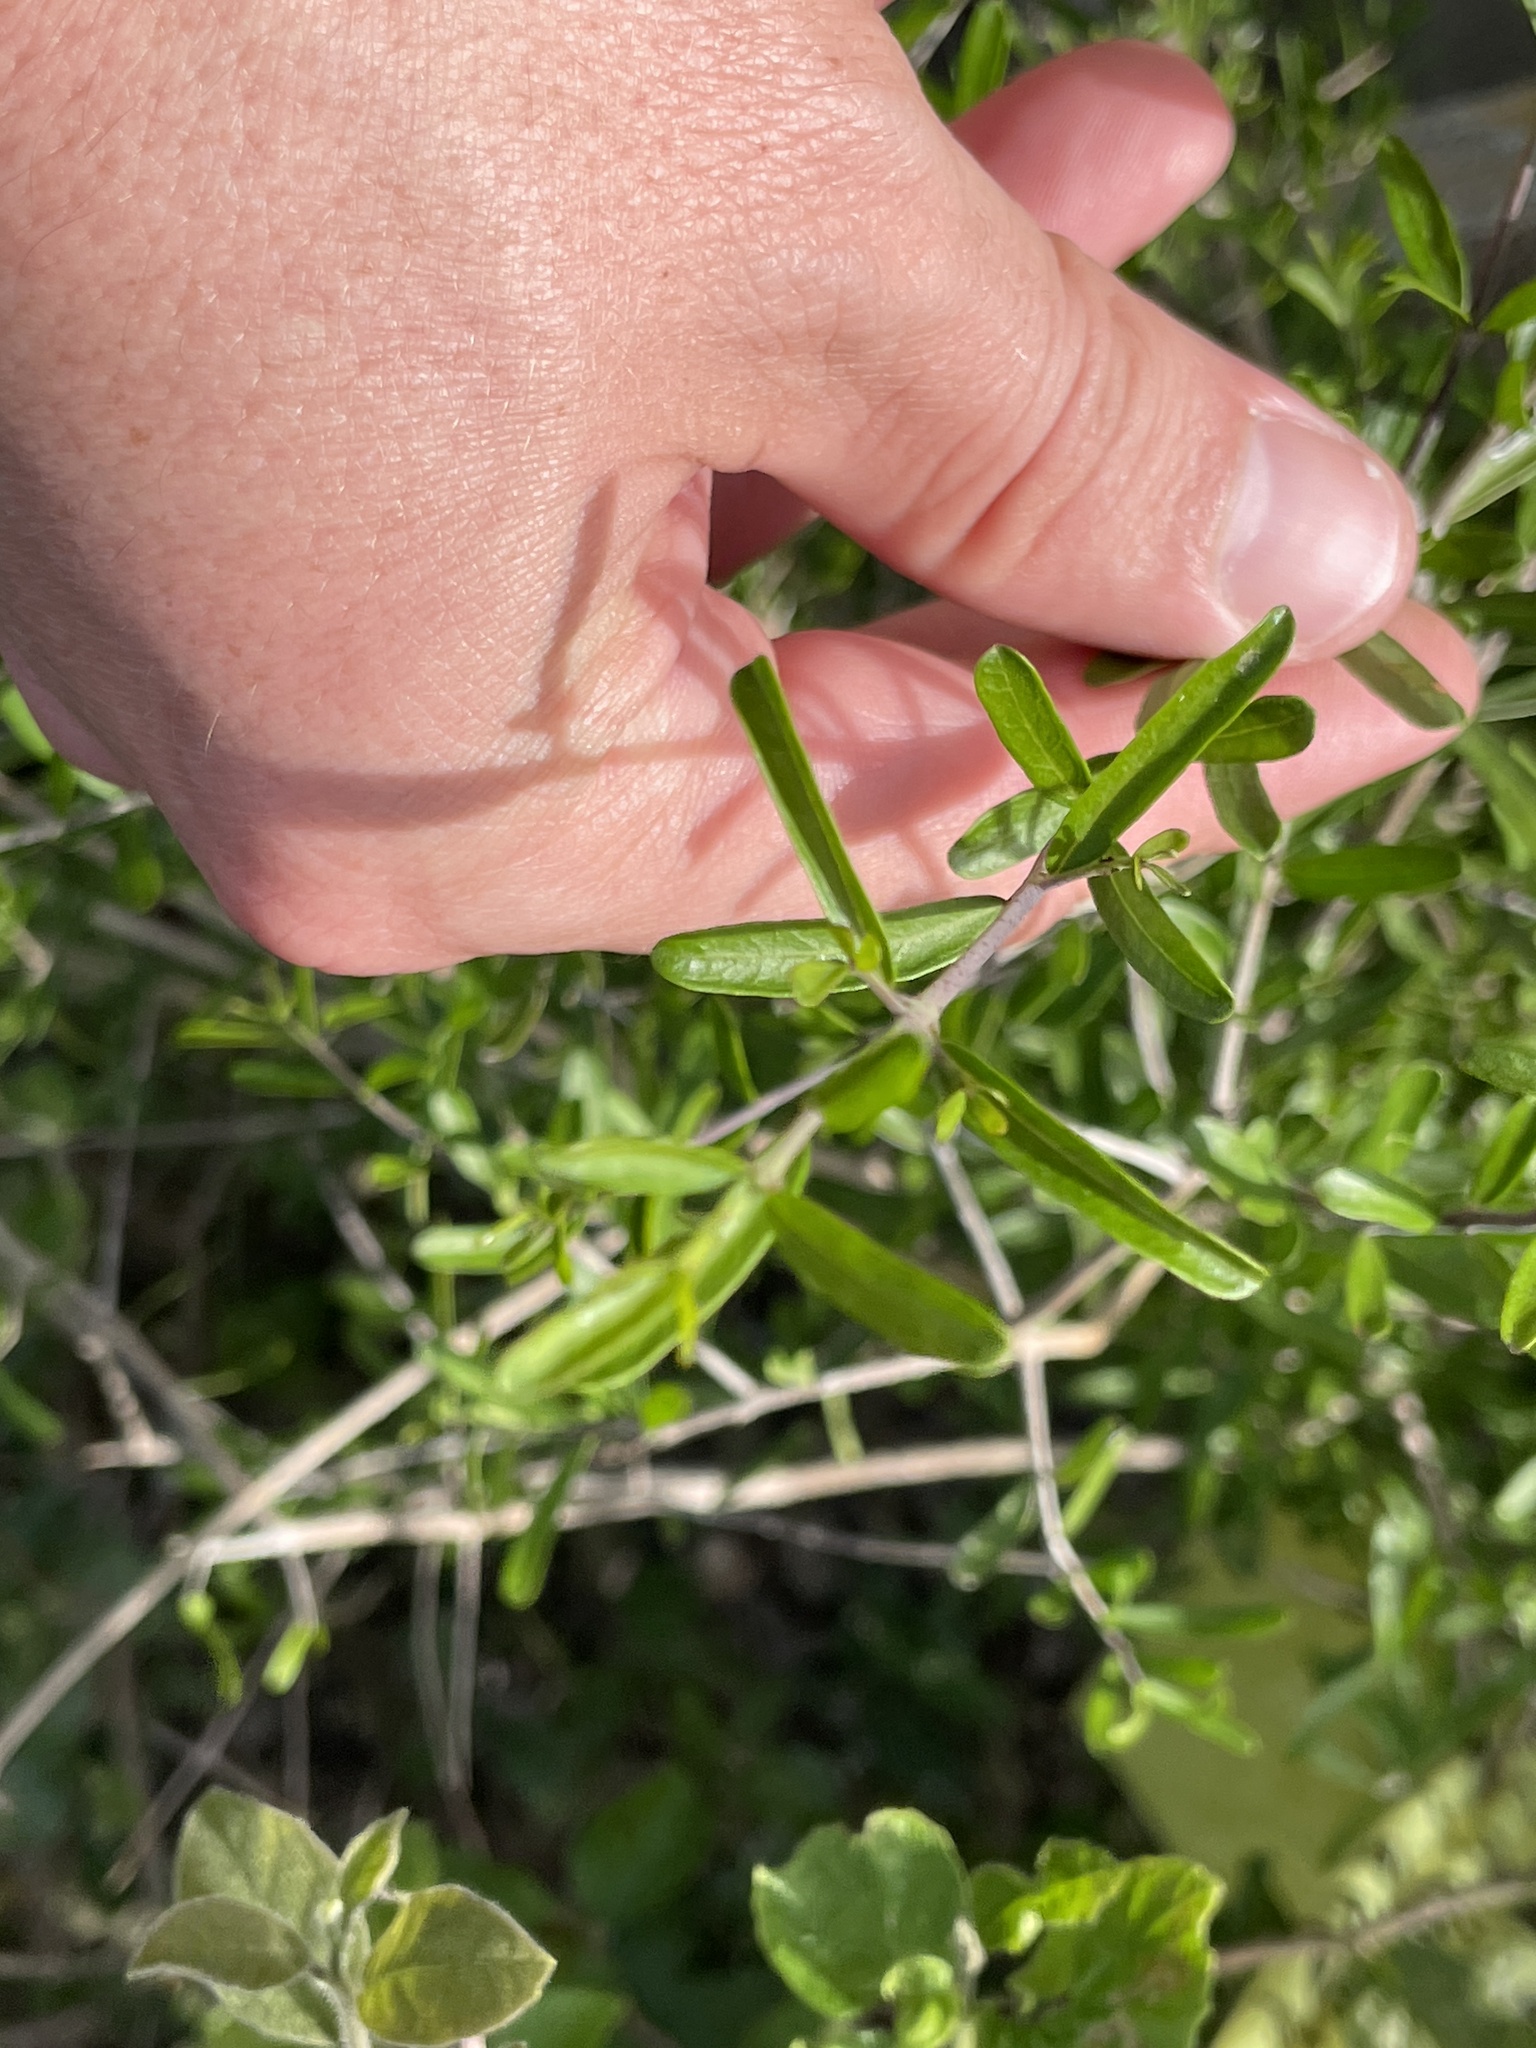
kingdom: Plantae
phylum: Tracheophyta
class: Magnoliopsida
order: Lamiales
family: Oleaceae
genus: Forestiera
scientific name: Forestiera angustifolia
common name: Elbowbush
